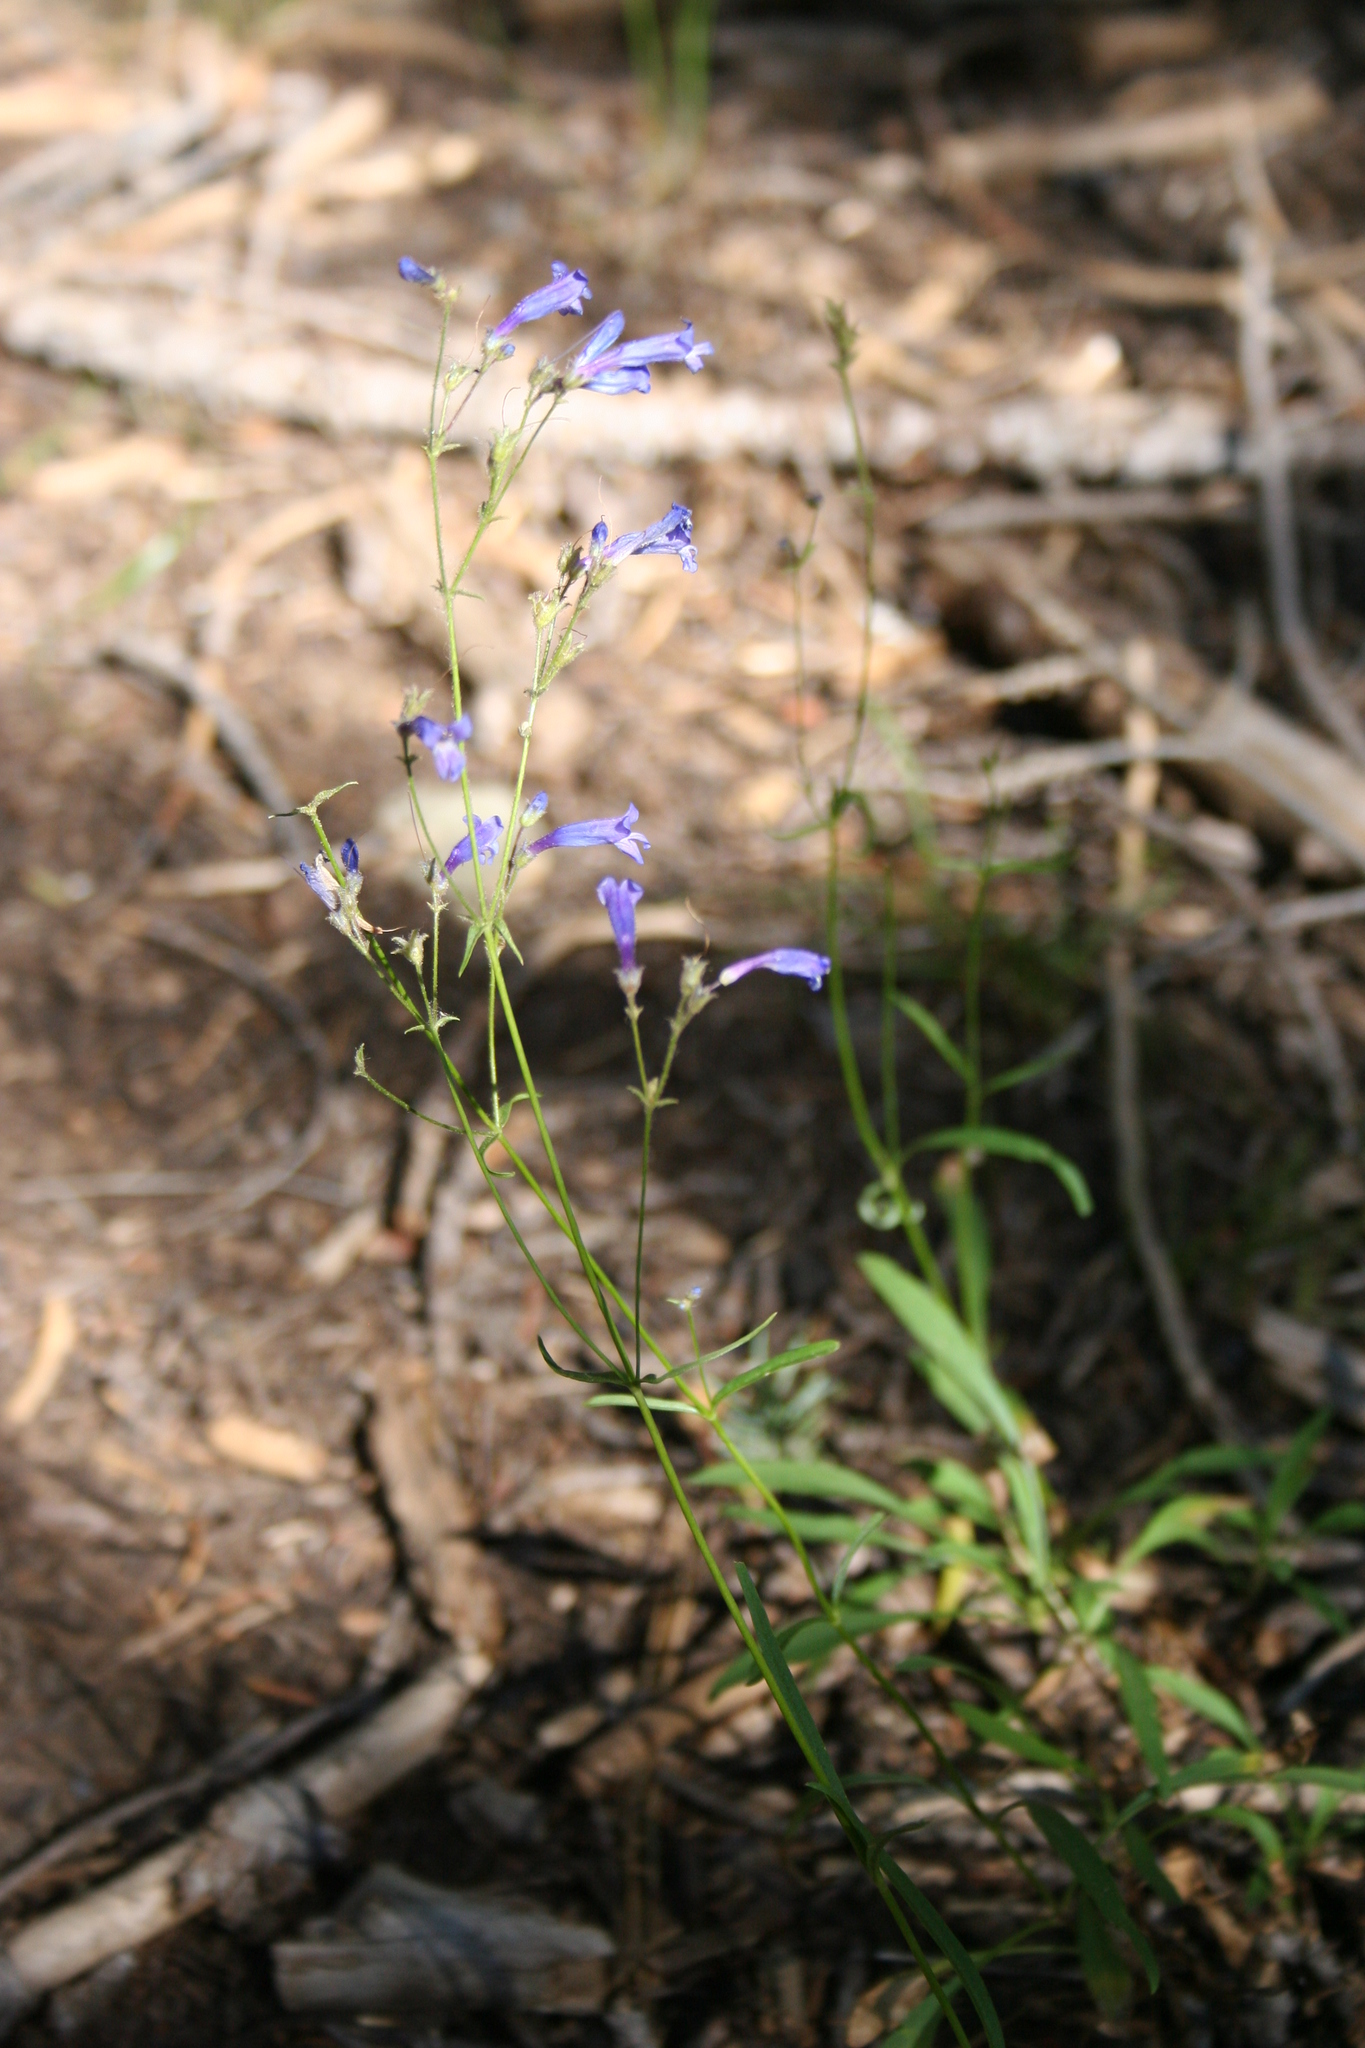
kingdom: Plantae
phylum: Tracheophyta
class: Magnoliopsida
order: Lamiales
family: Plantaginaceae
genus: Penstemon
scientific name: Penstemon laetus
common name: Gay penstemon
